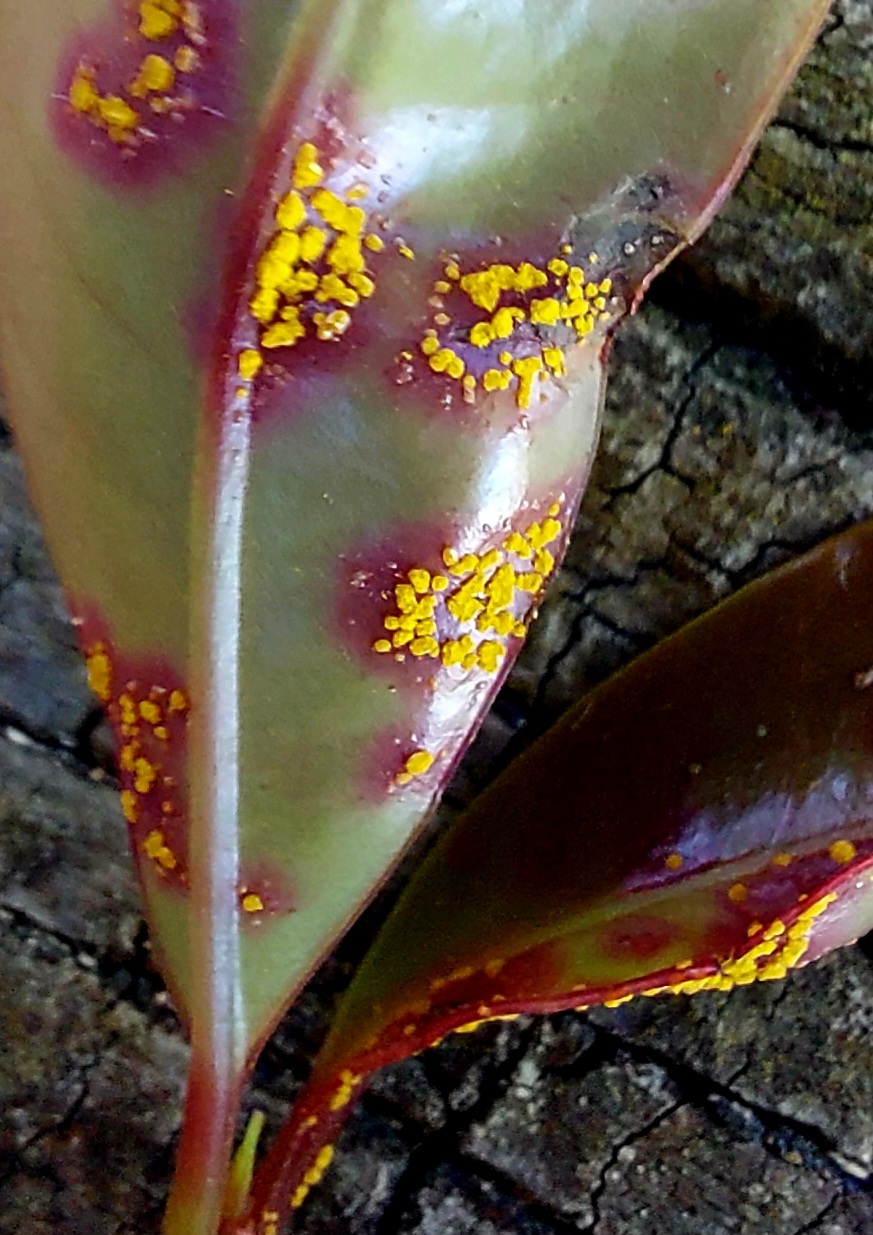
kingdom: Fungi
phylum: Basidiomycota
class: Pucciniomycetes
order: Pucciniales
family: Sphaerophragmiaceae
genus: Austropuccinia
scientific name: Austropuccinia psidii
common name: Myrtle rust
